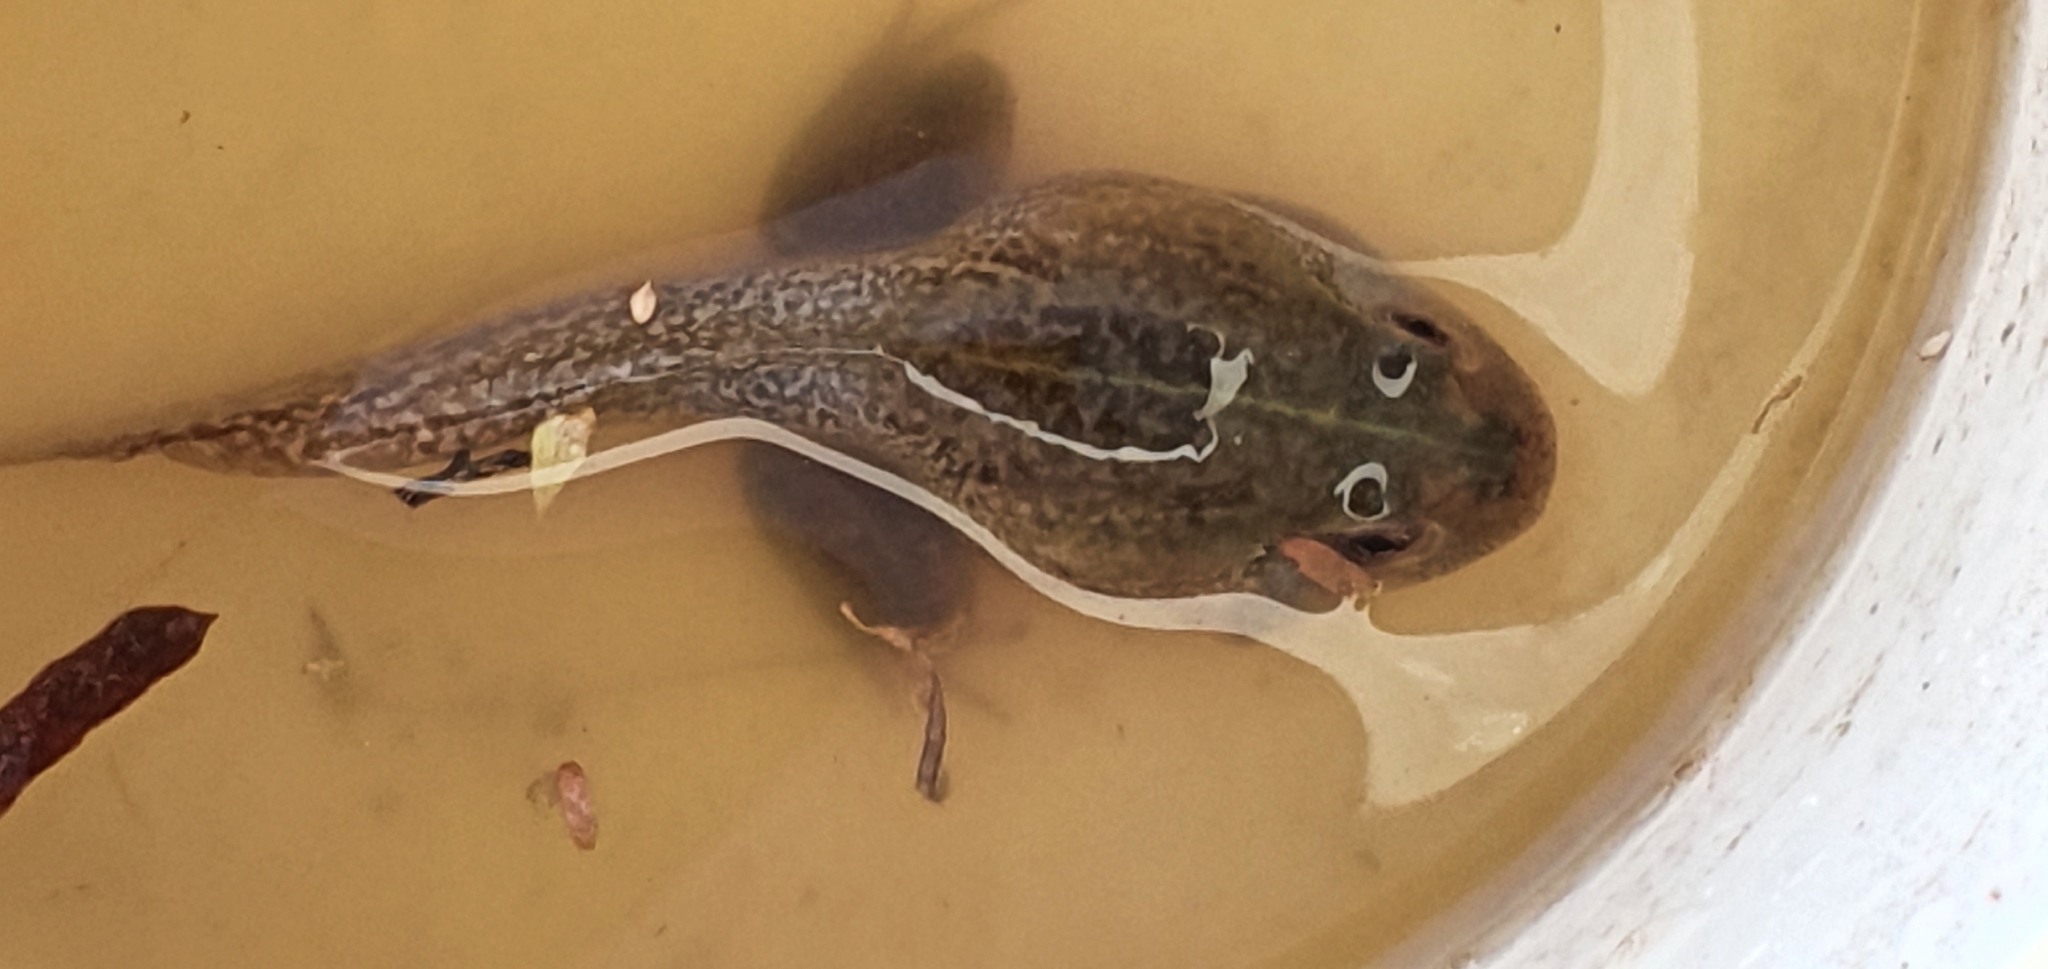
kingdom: Animalia
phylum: Chordata
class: Amphibia
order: Anura
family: Pelodryadidae
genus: Ranoidea
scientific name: Ranoidea novaehollandiae
